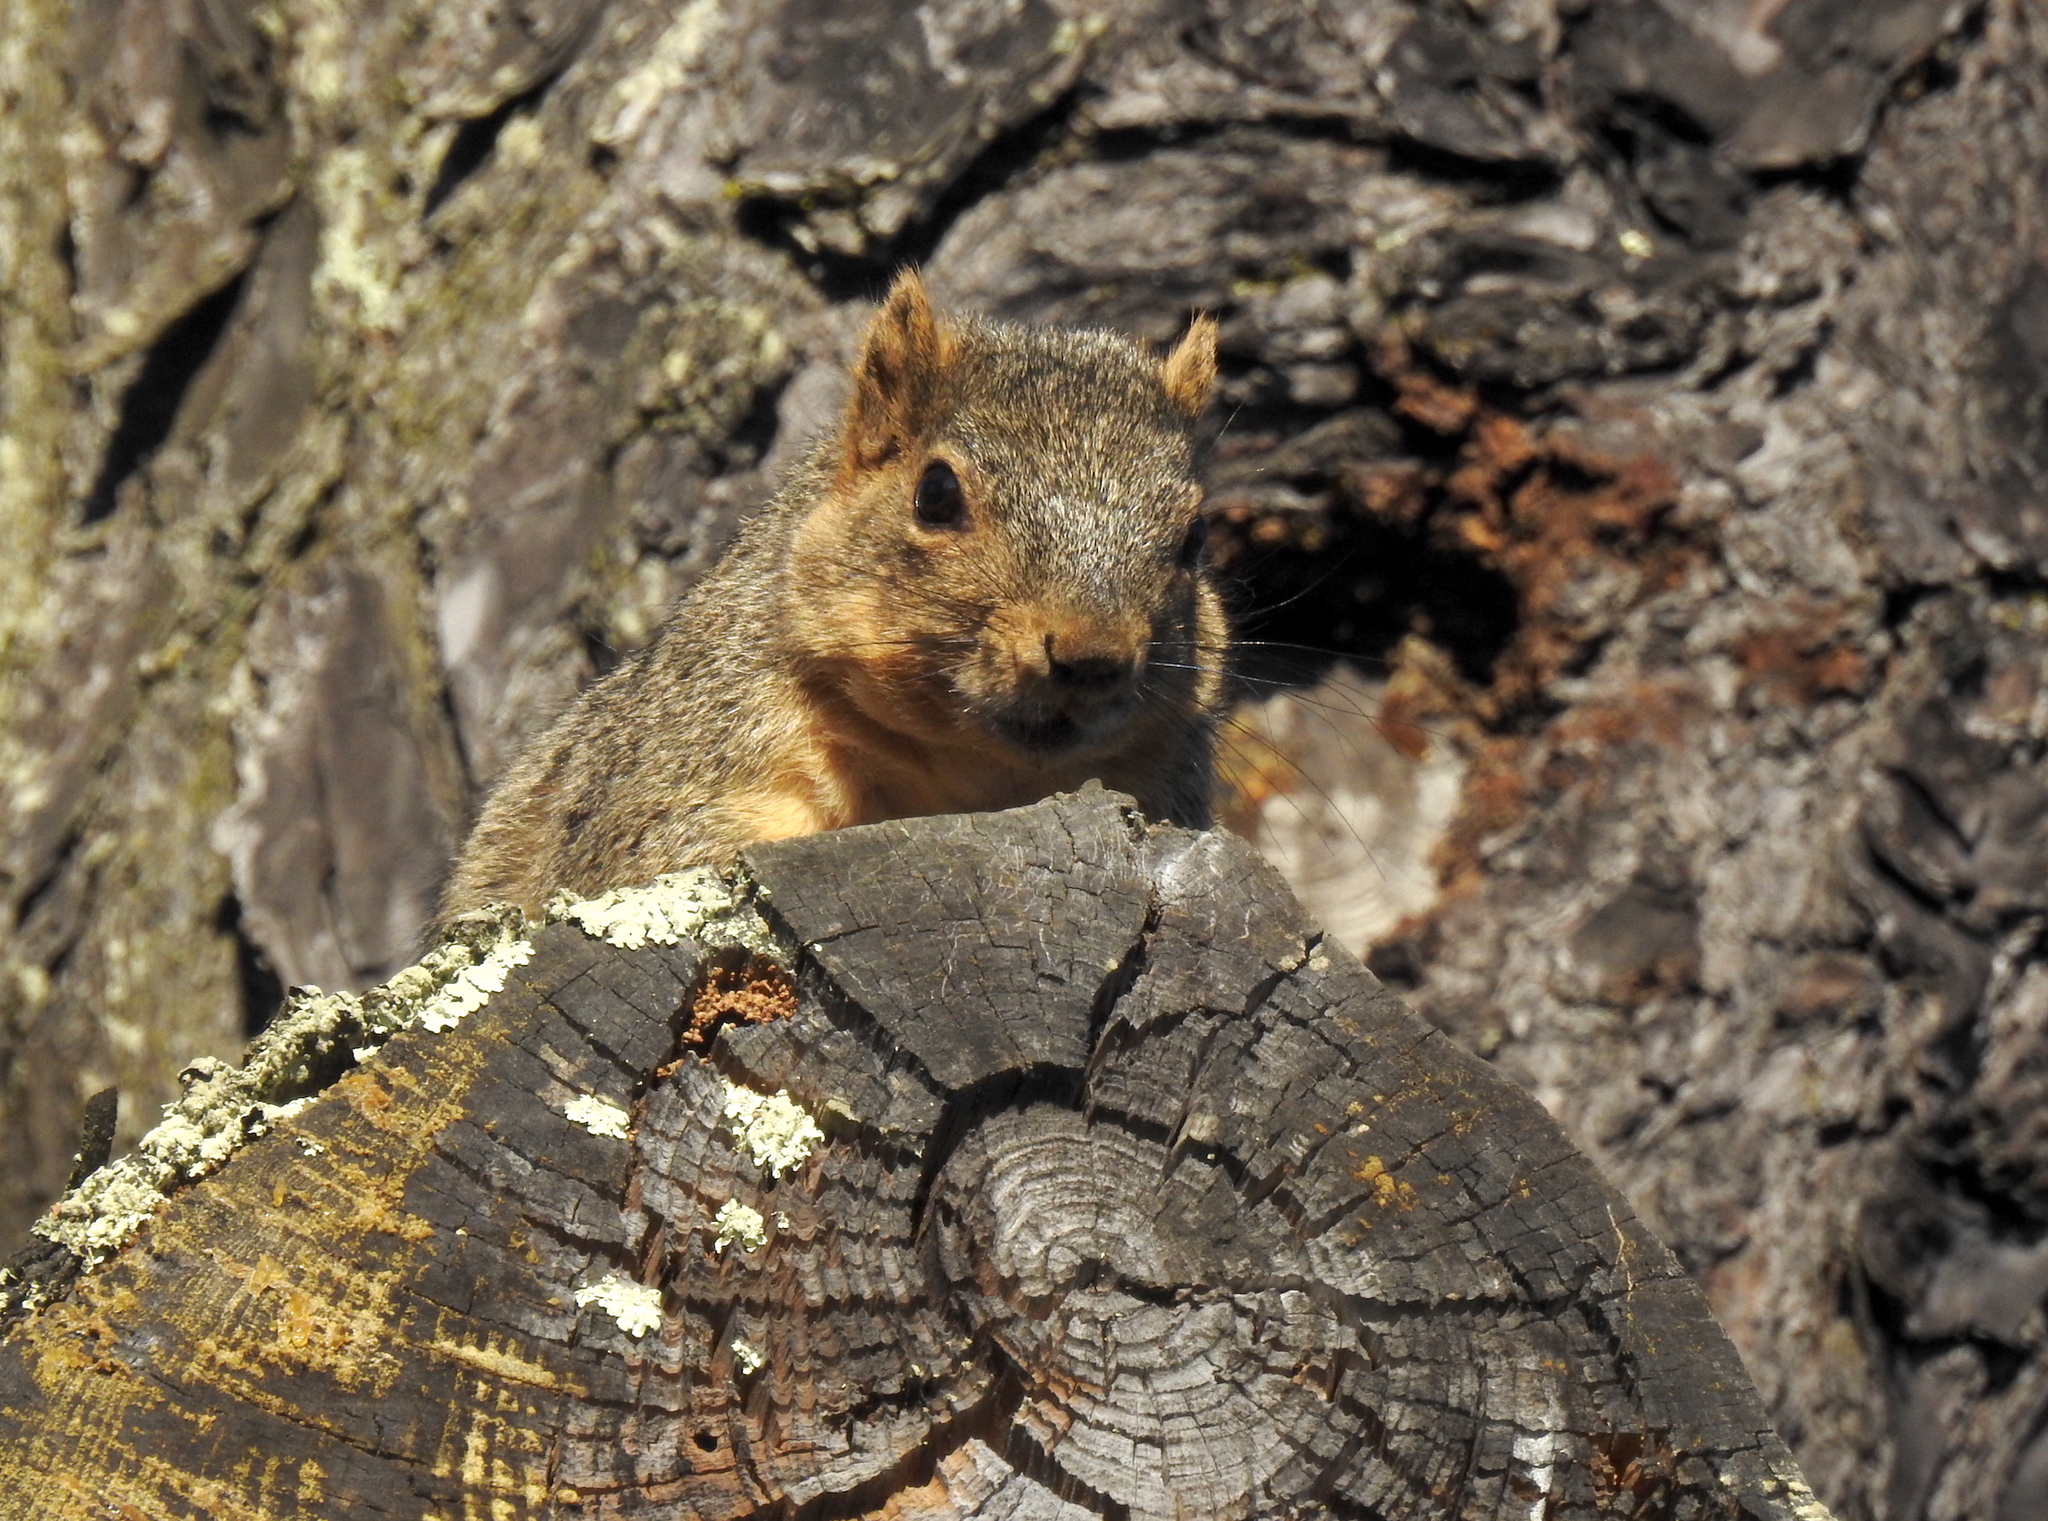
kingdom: Animalia
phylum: Chordata
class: Mammalia
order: Rodentia
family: Sciuridae
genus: Sciurus
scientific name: Sciurus niger
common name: Fox squirrel
